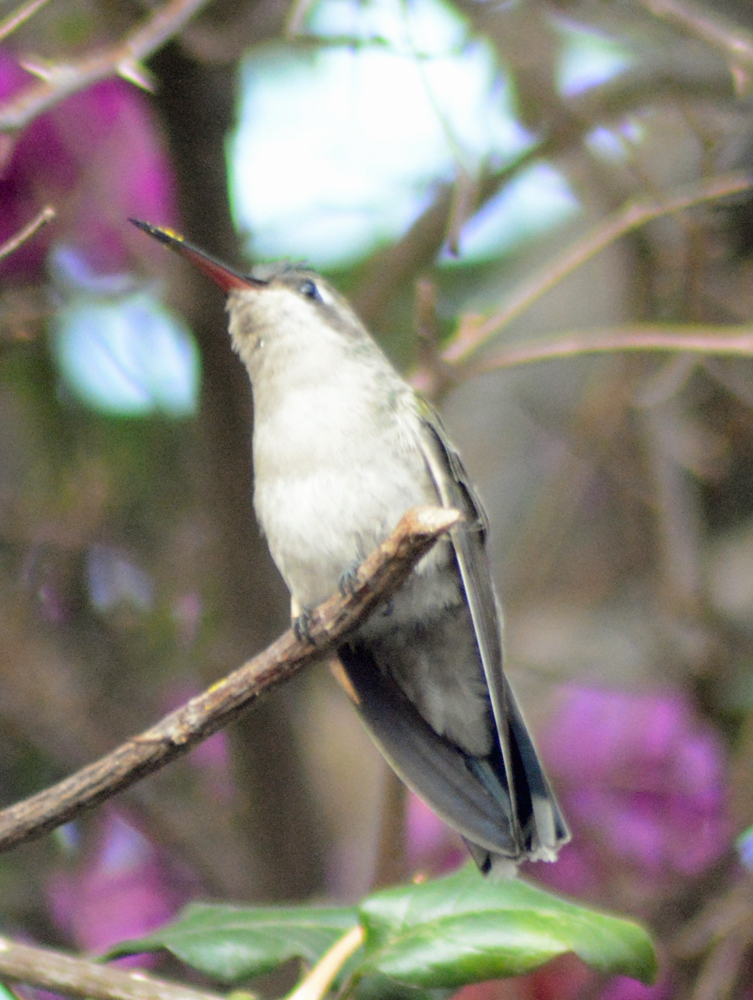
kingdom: Animalia
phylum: Chordata
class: Aves
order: Apodiformes
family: Trochilidae
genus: Cynanthus
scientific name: Cynanthus latirostris
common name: Broad-billed hummingbird
